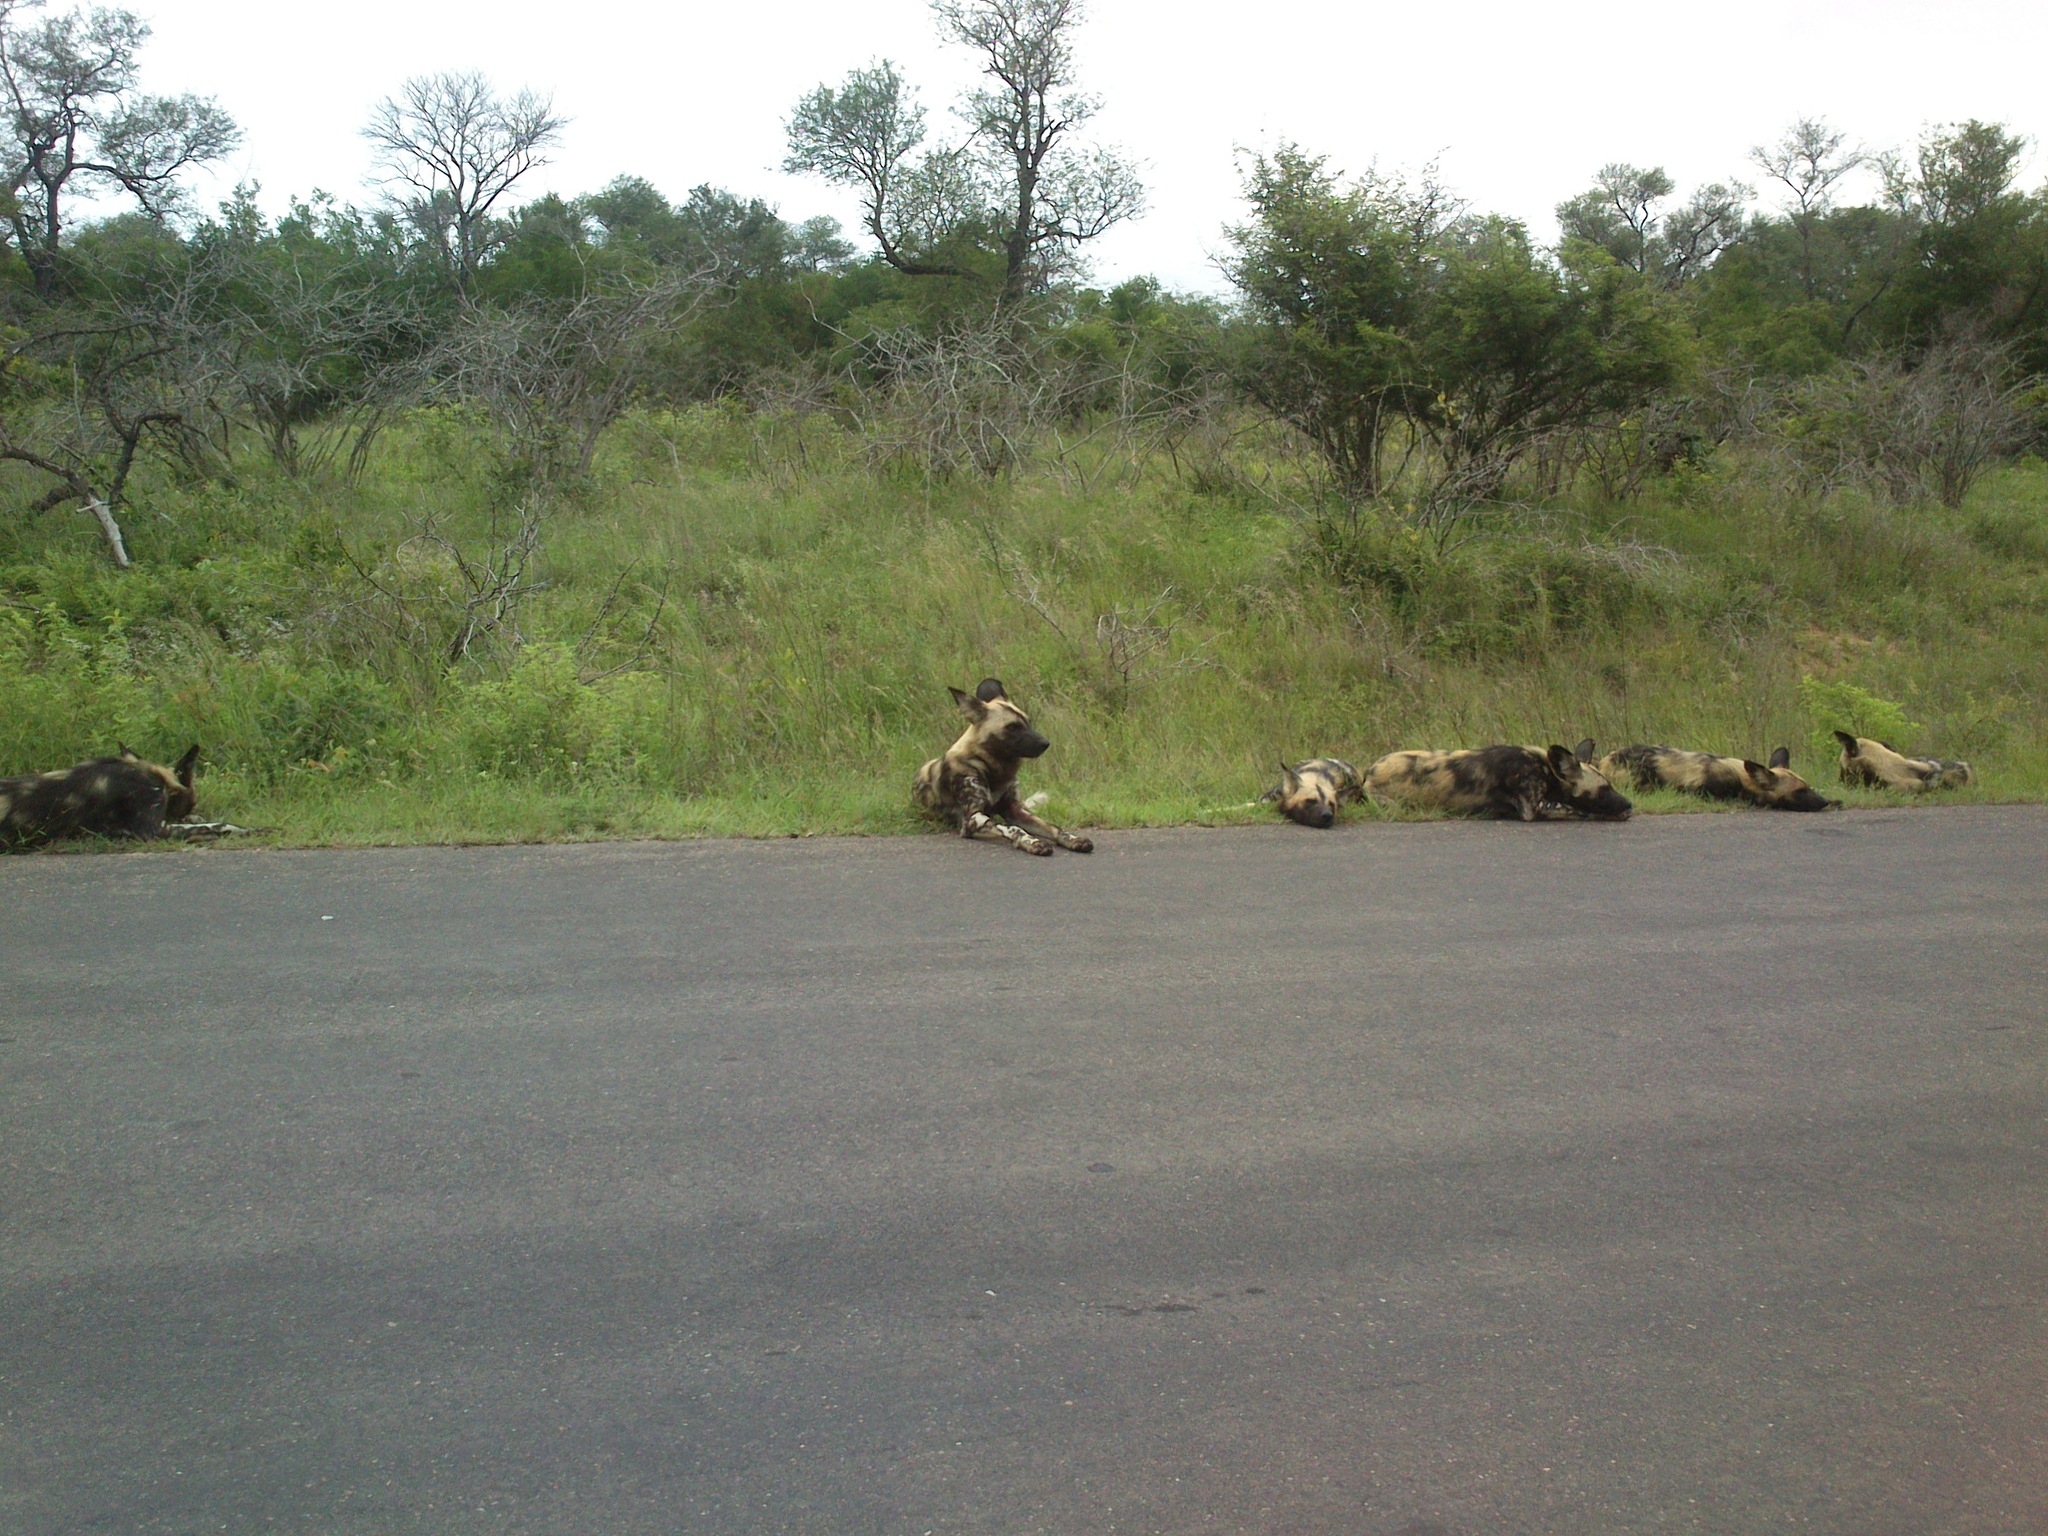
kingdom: Animalia
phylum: Chordata
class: Mammalia
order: Carnivora
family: Canidae
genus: Lycaon
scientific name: Lycaon pictus
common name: African wild dog
